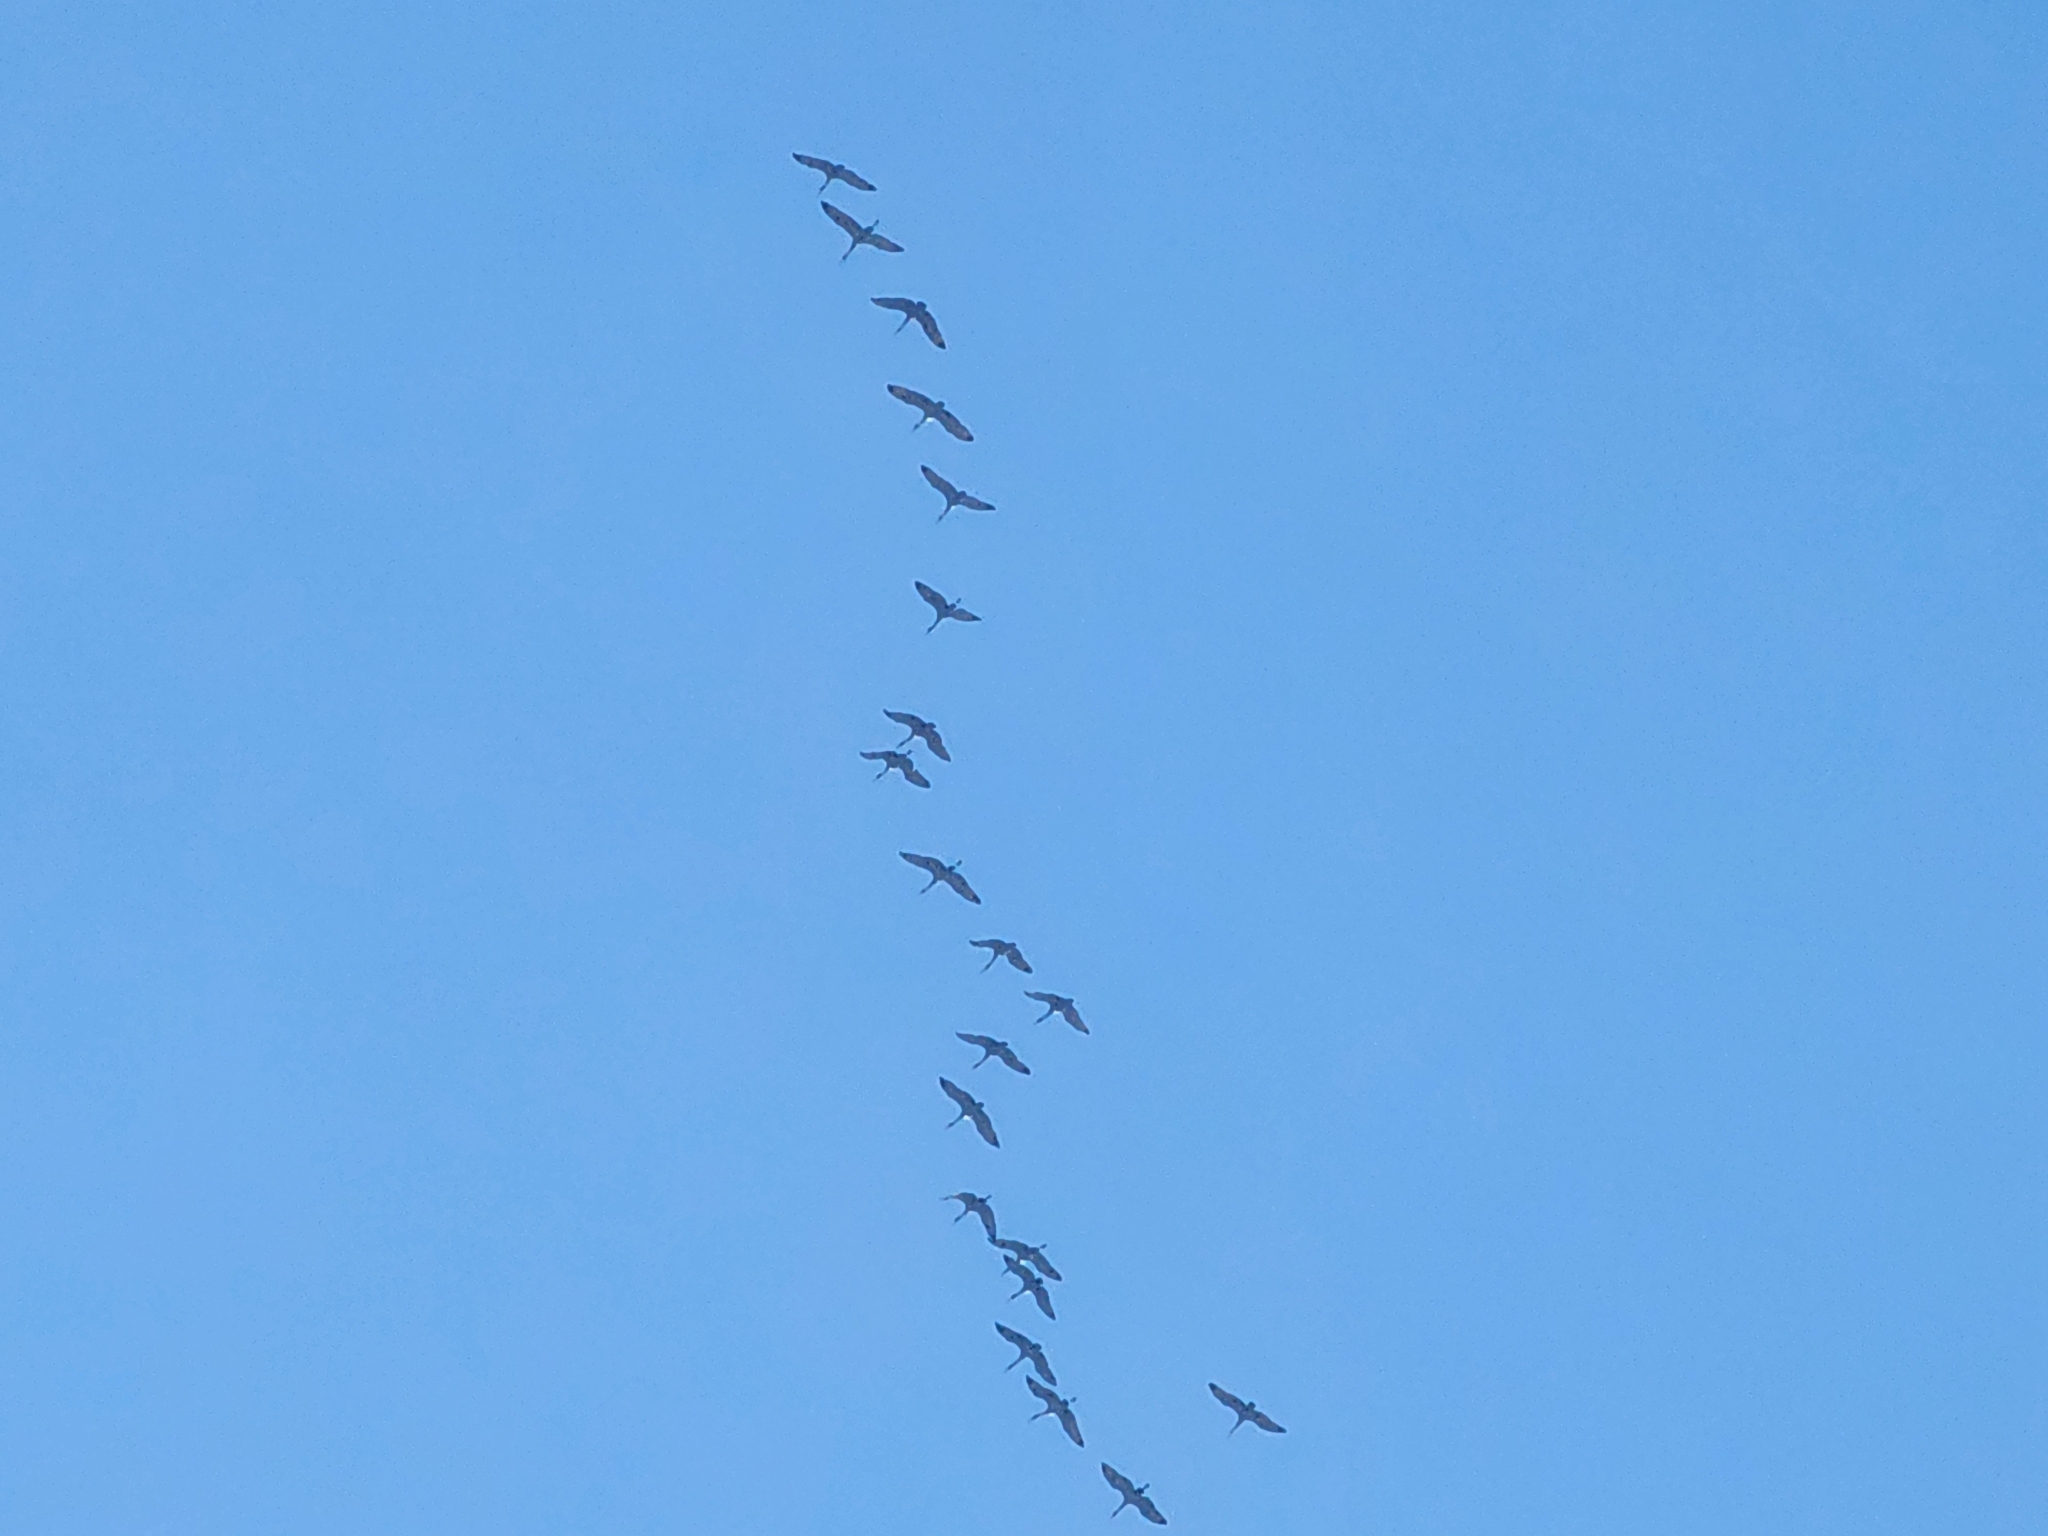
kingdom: Animalia
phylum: Chordata
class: Aves
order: Gruiformes
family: Gruidae
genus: Grus
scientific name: Grus canadensis
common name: Sandhill crane
